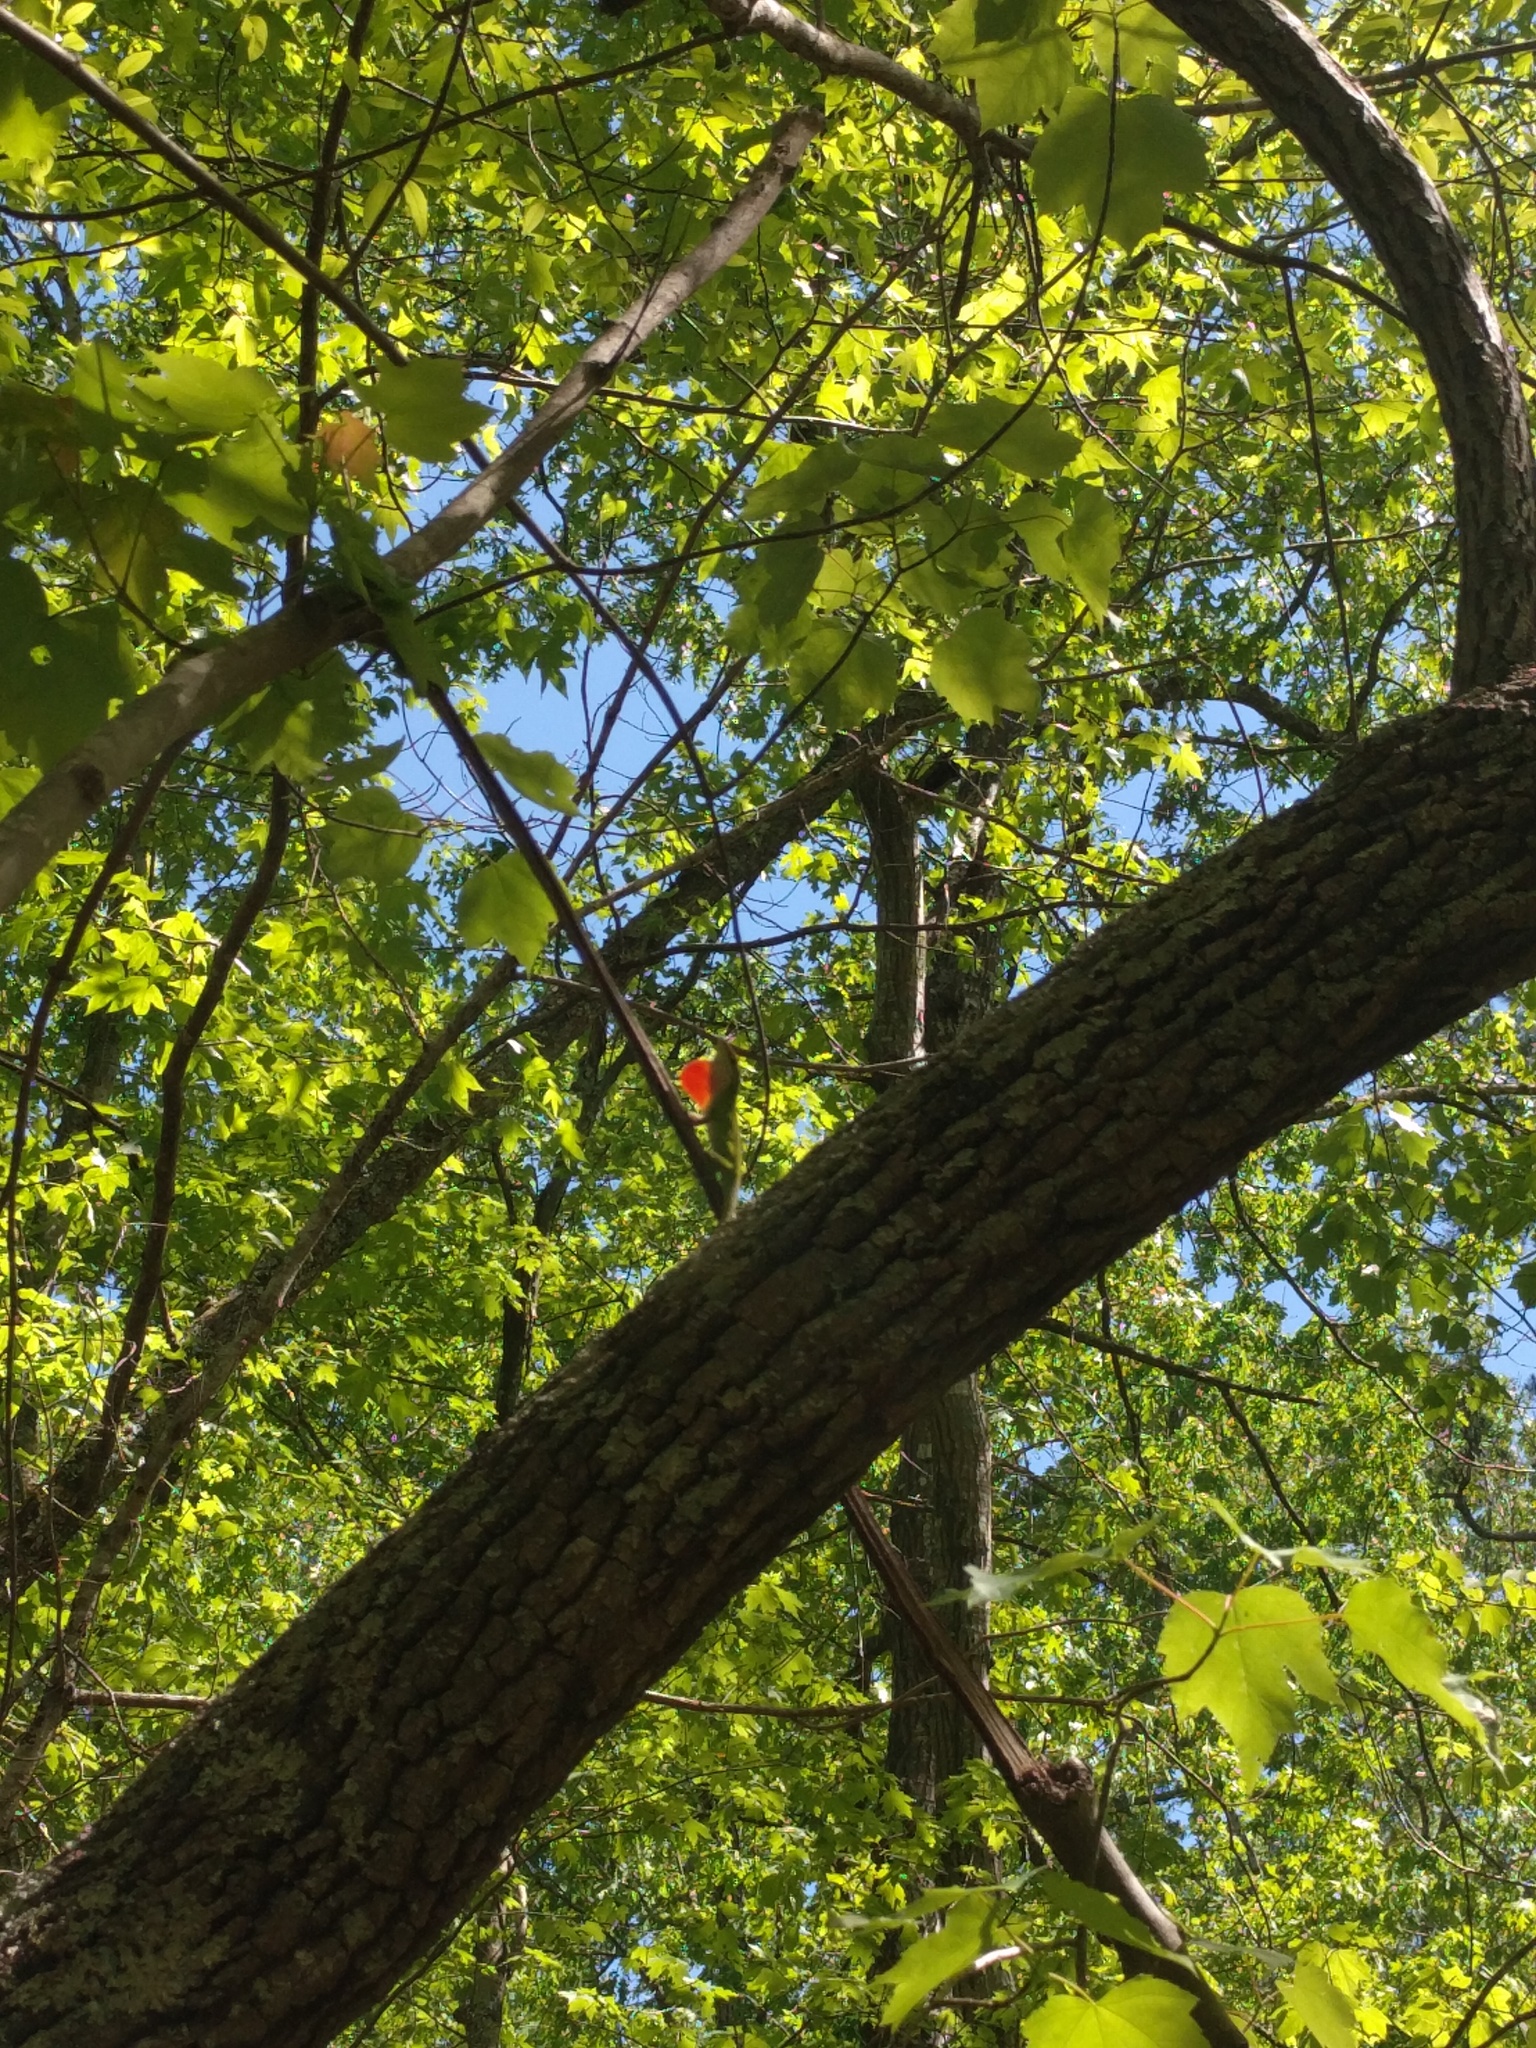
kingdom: Animalia
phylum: Chordata
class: Squamata
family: Dactyloidae
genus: Anolis
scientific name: Anolis carolinensis
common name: Green anole
